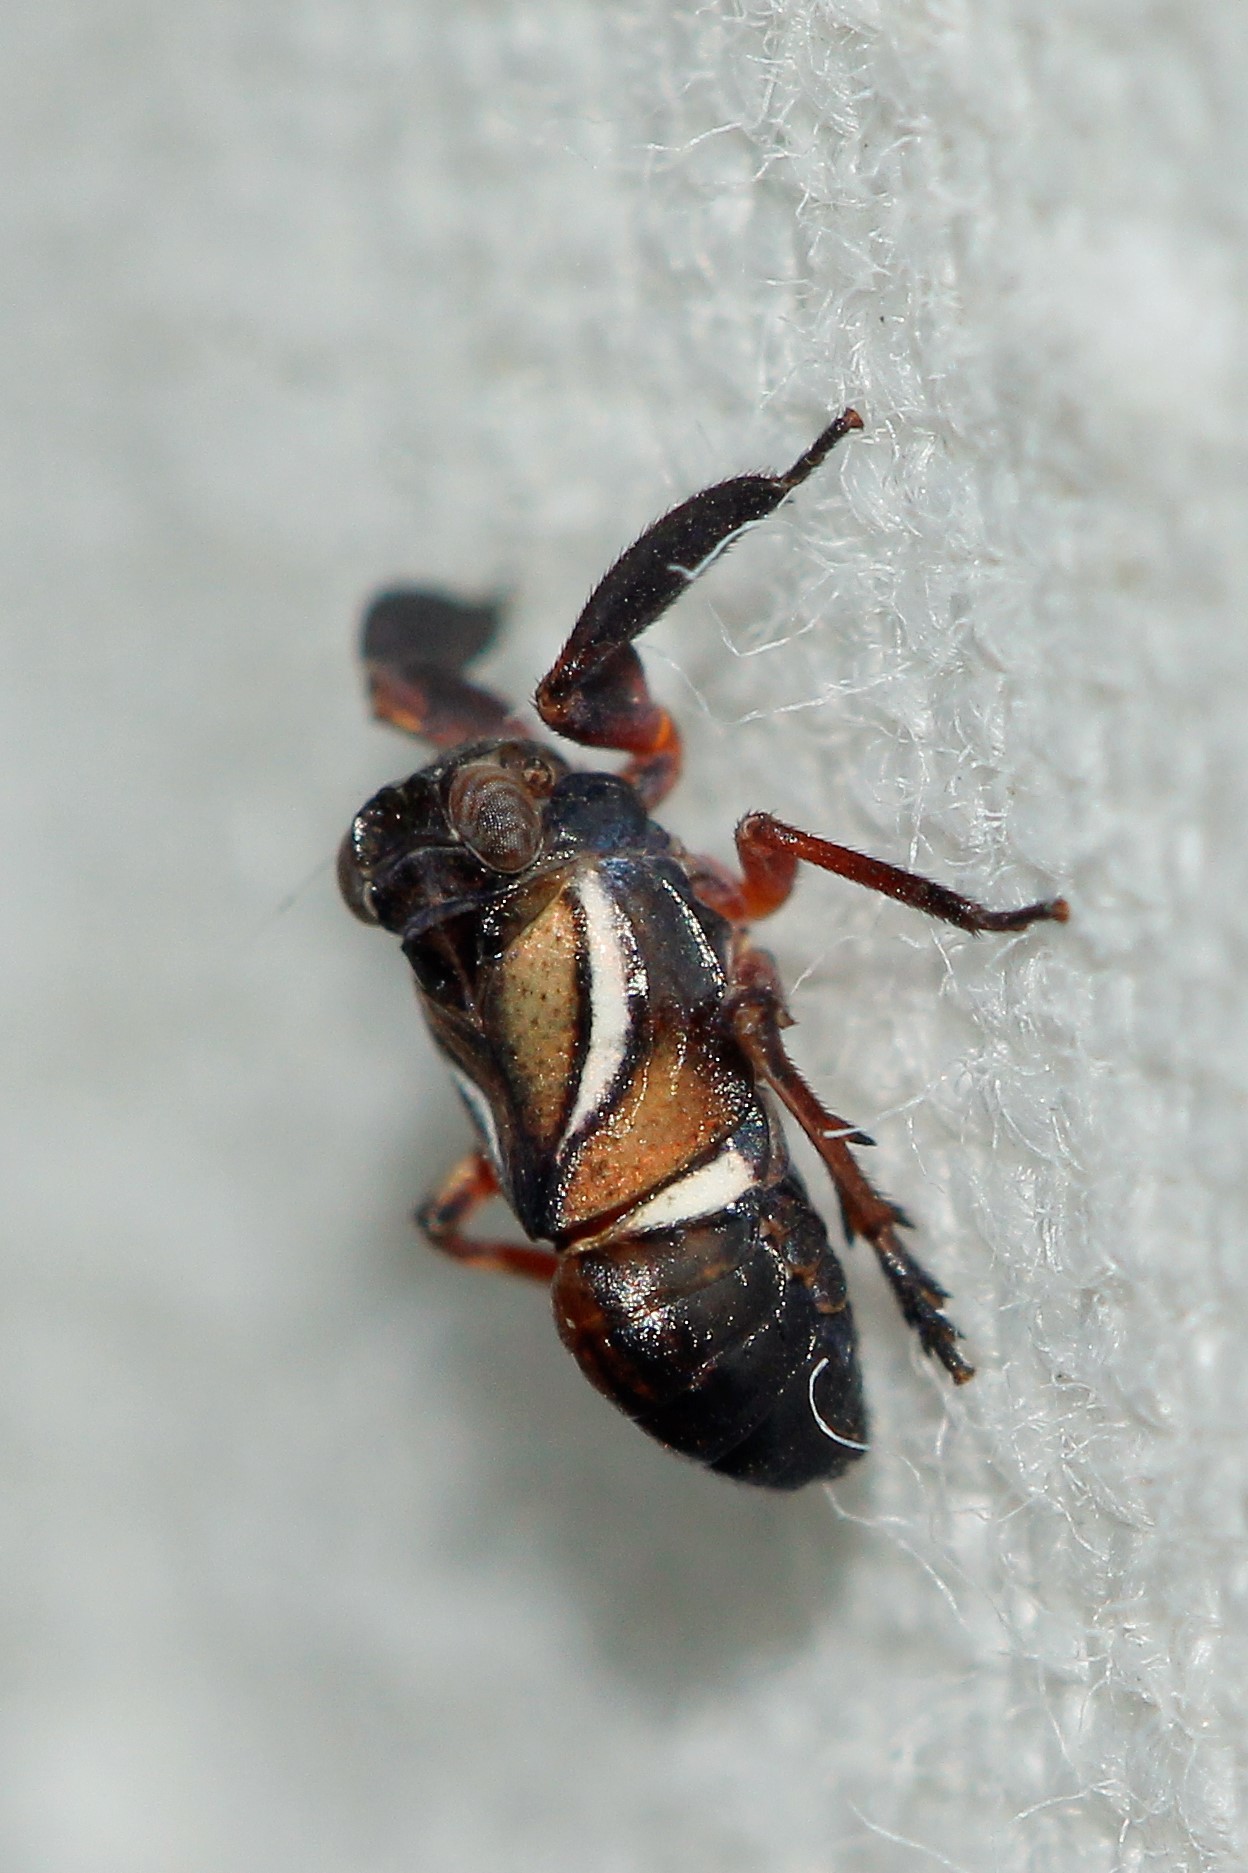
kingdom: Animalia
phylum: Arthropoda
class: Insecta
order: Hemiptera
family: Caliscelidae
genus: Caliscelis
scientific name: Caliscelis affinis
